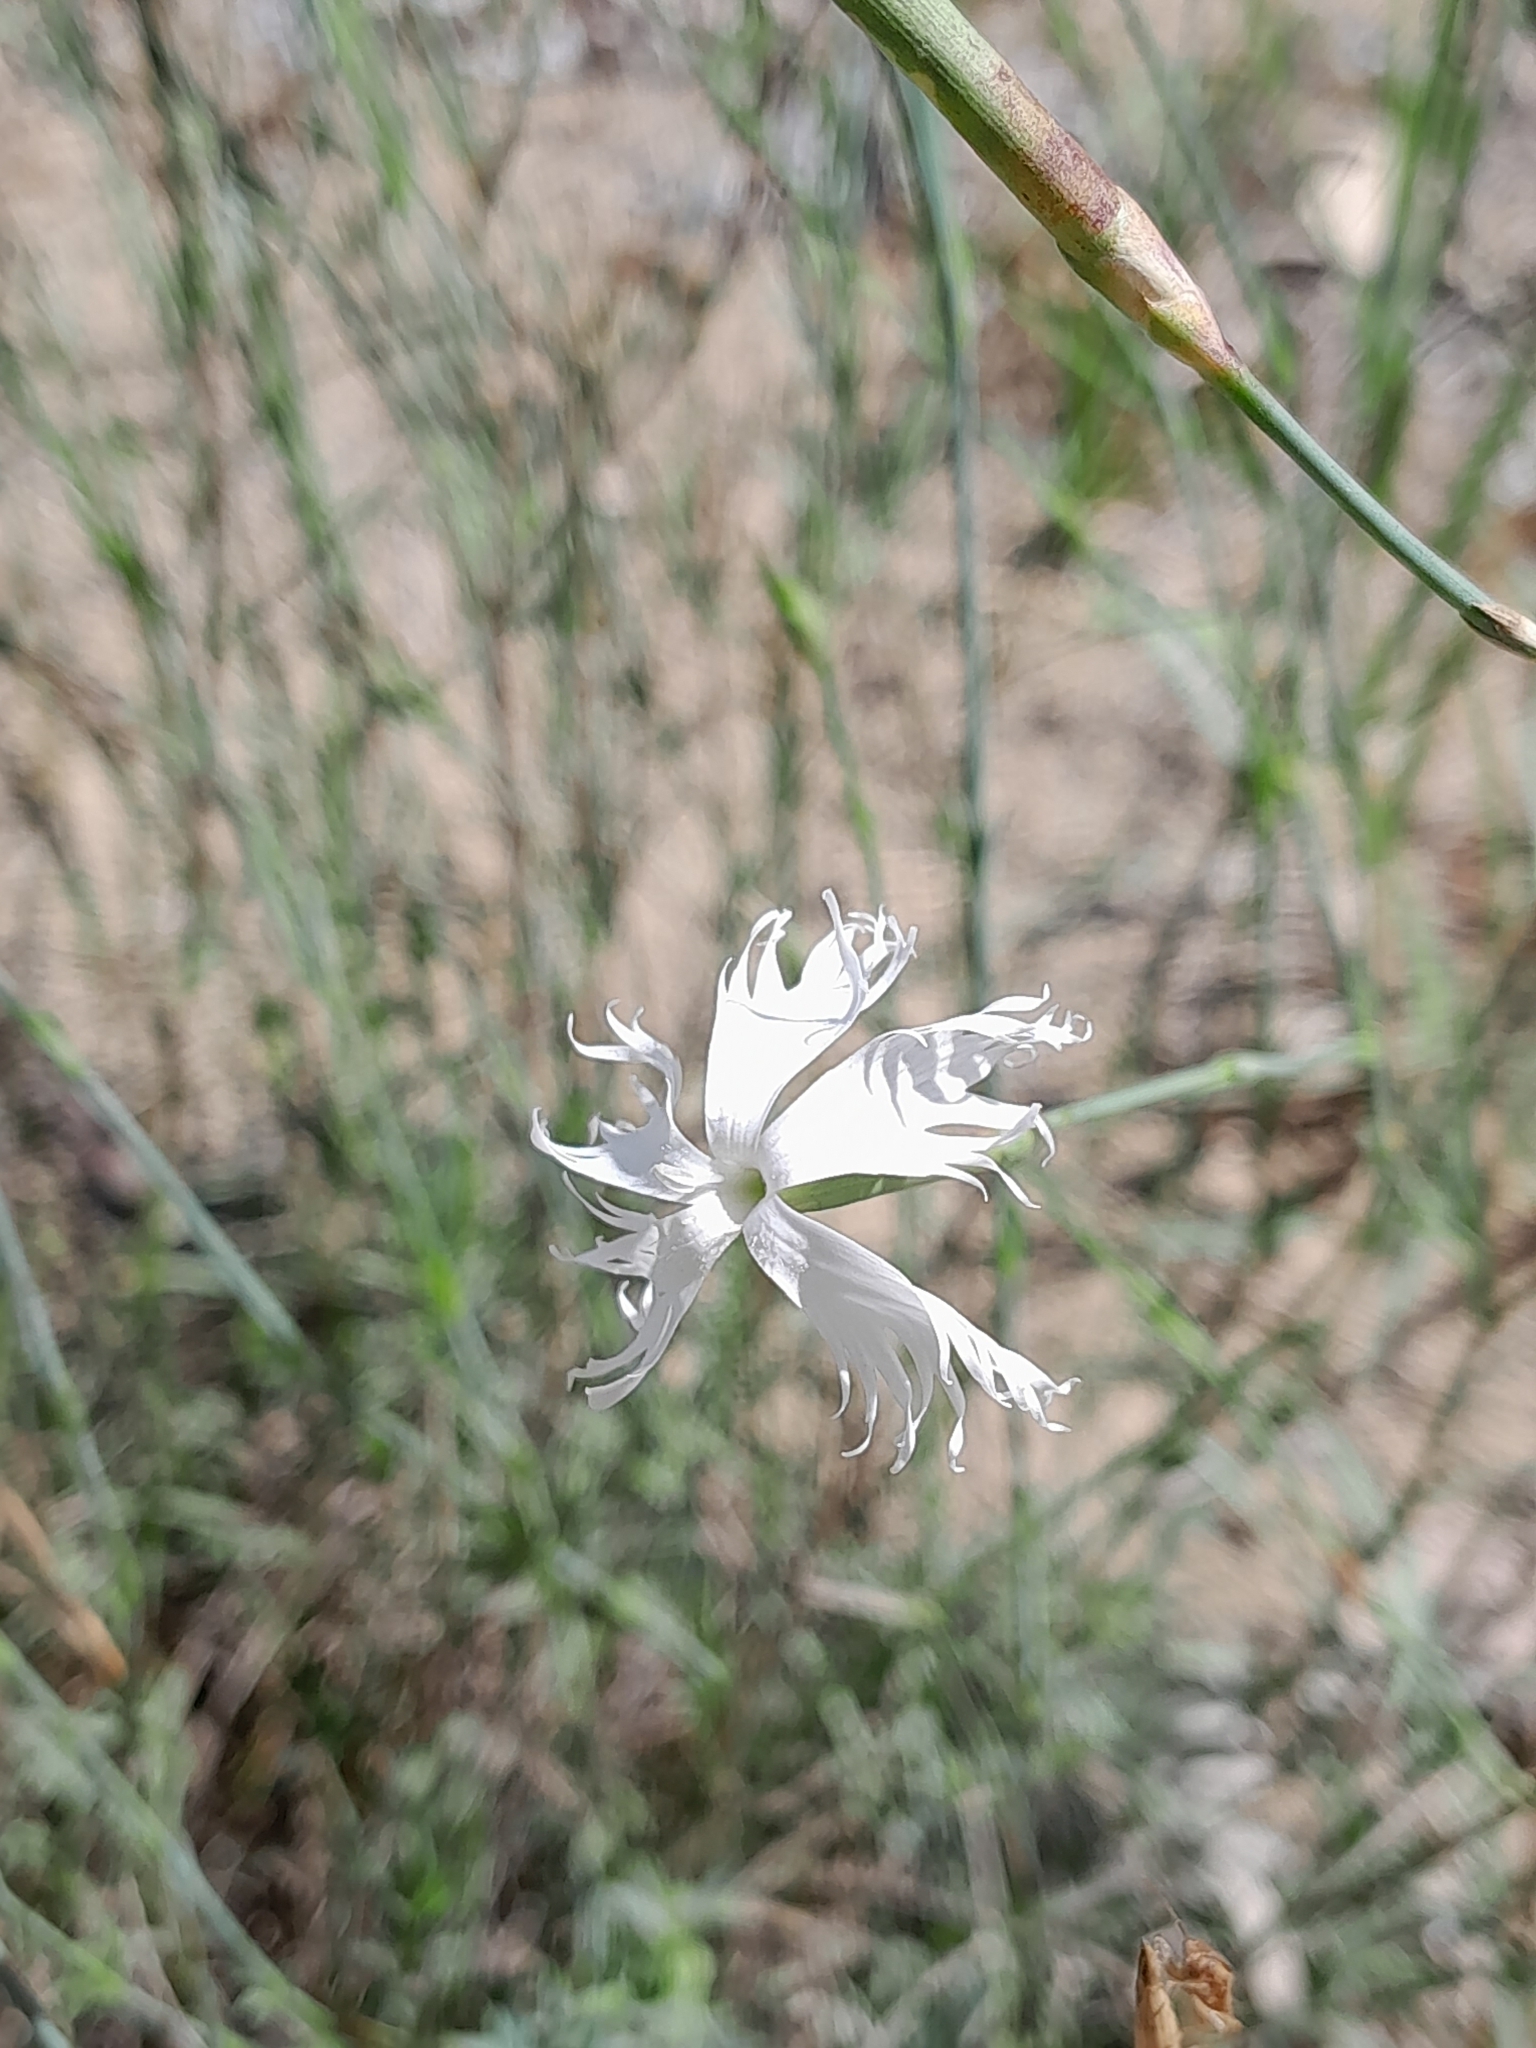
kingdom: Plantae
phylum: Tracheophyta
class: Magnoliopsida
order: Caryophyllales
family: Caryophyllaceae
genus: Dianthus
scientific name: Dianthus serotinus
